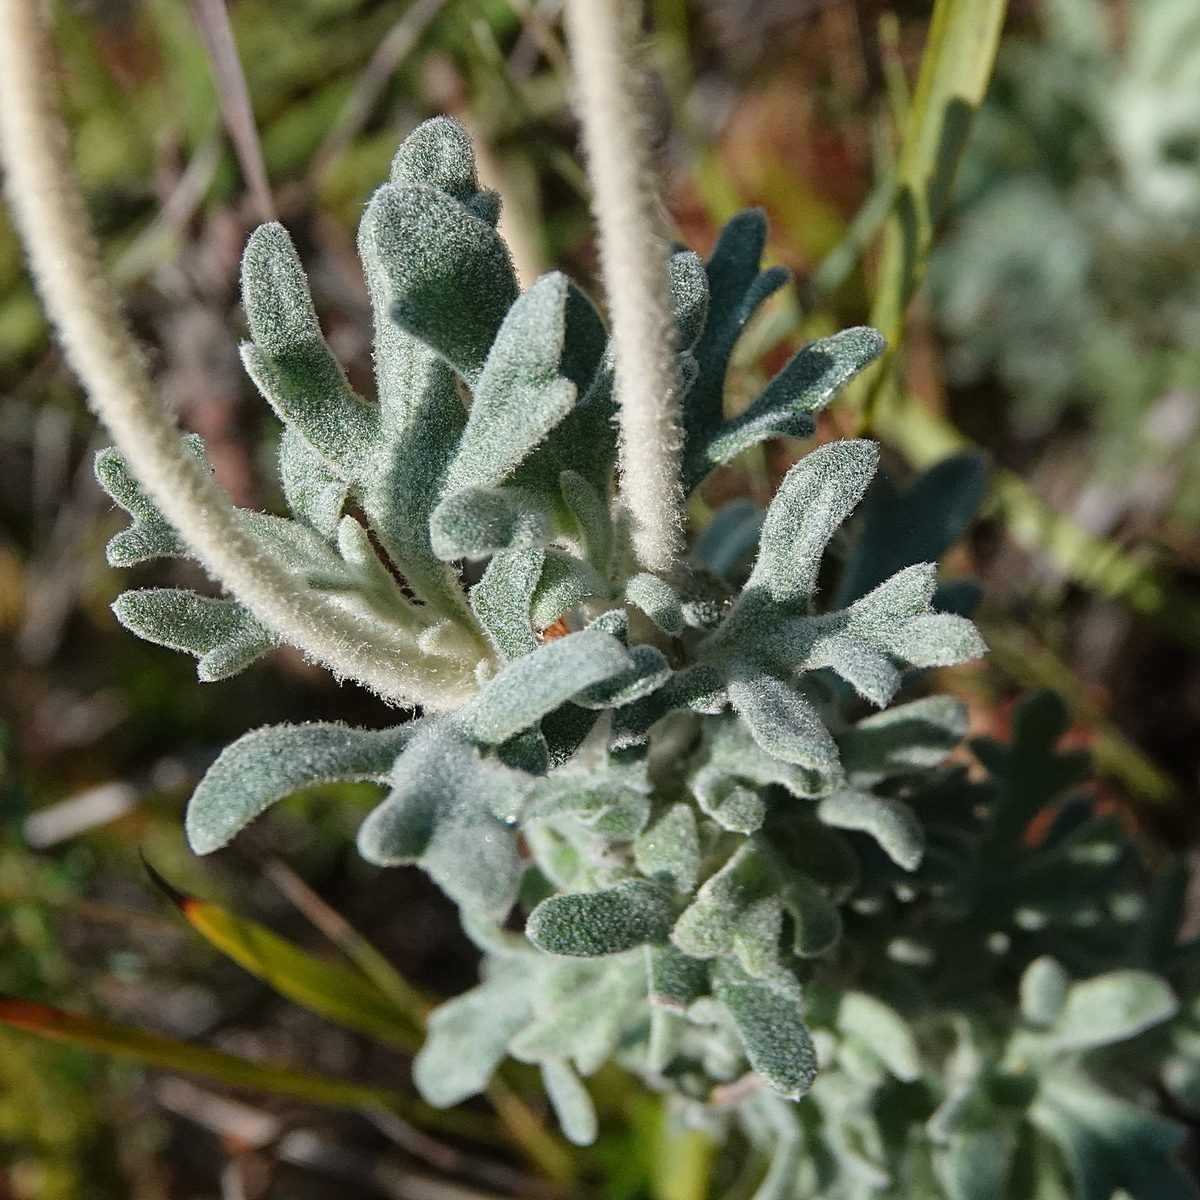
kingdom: Plantae
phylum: Tracheophyta
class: Magnoliopsida
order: Apiales
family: Apiaceae
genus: Actinotus
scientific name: Actinotus helianthi
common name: Flannel-flower
